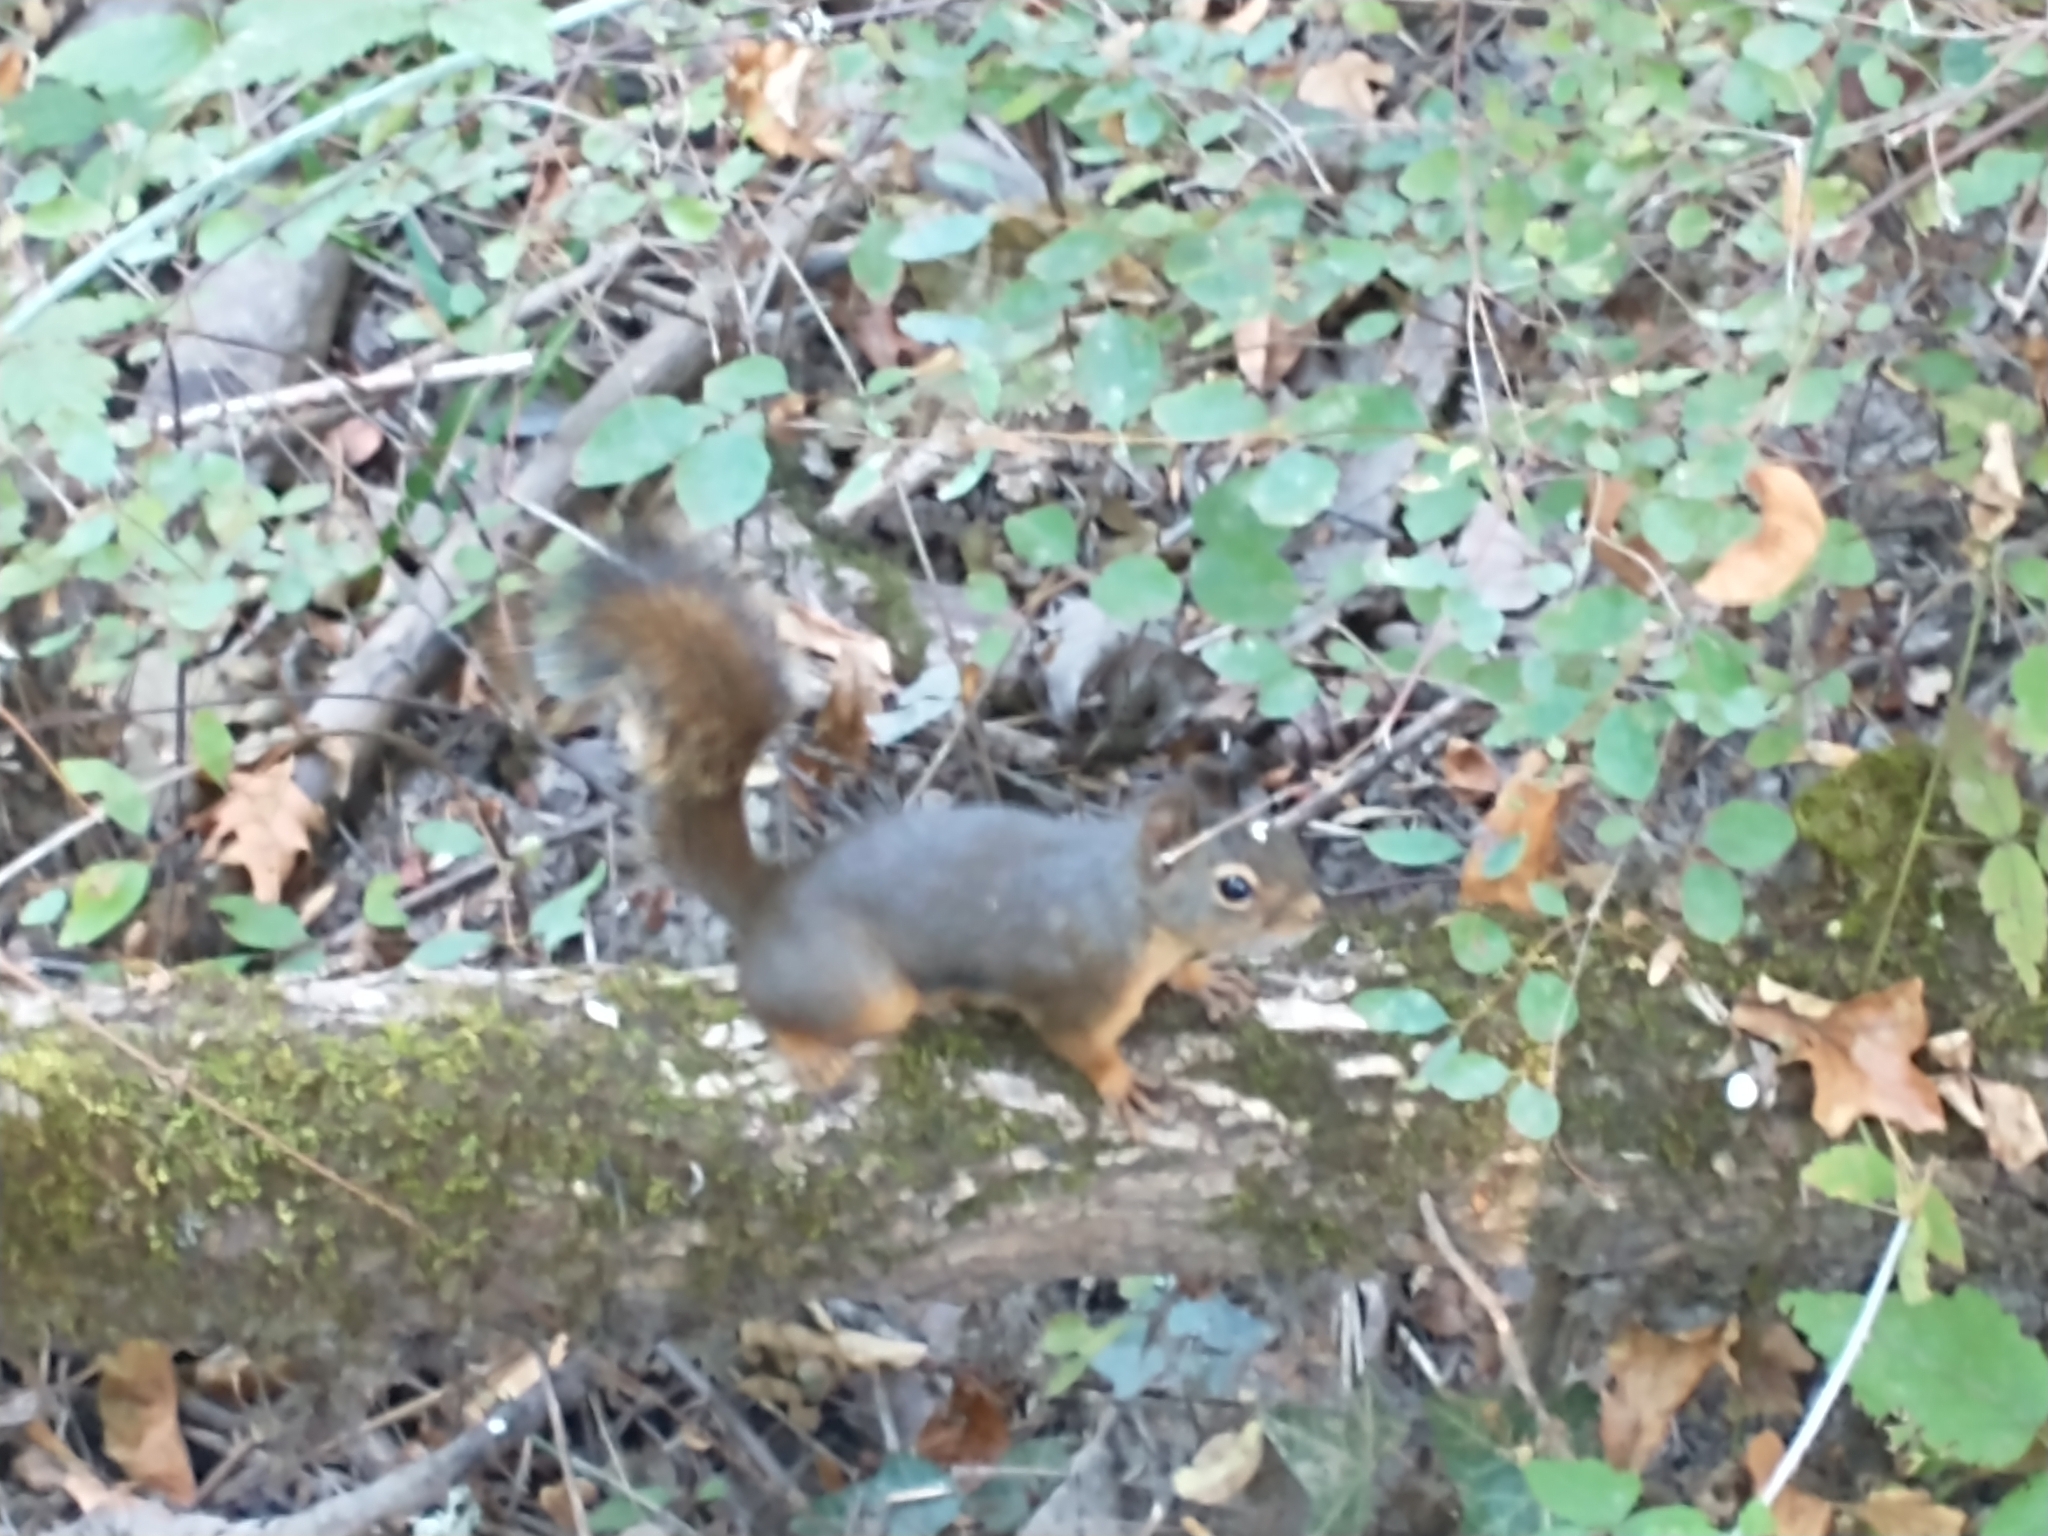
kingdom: Animalia
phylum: Chordata
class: Mammalia
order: Rodentia
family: Sciuridae
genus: Tamiasciurus
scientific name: Tamiasciurus douglasii
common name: Douglas's squirrel
